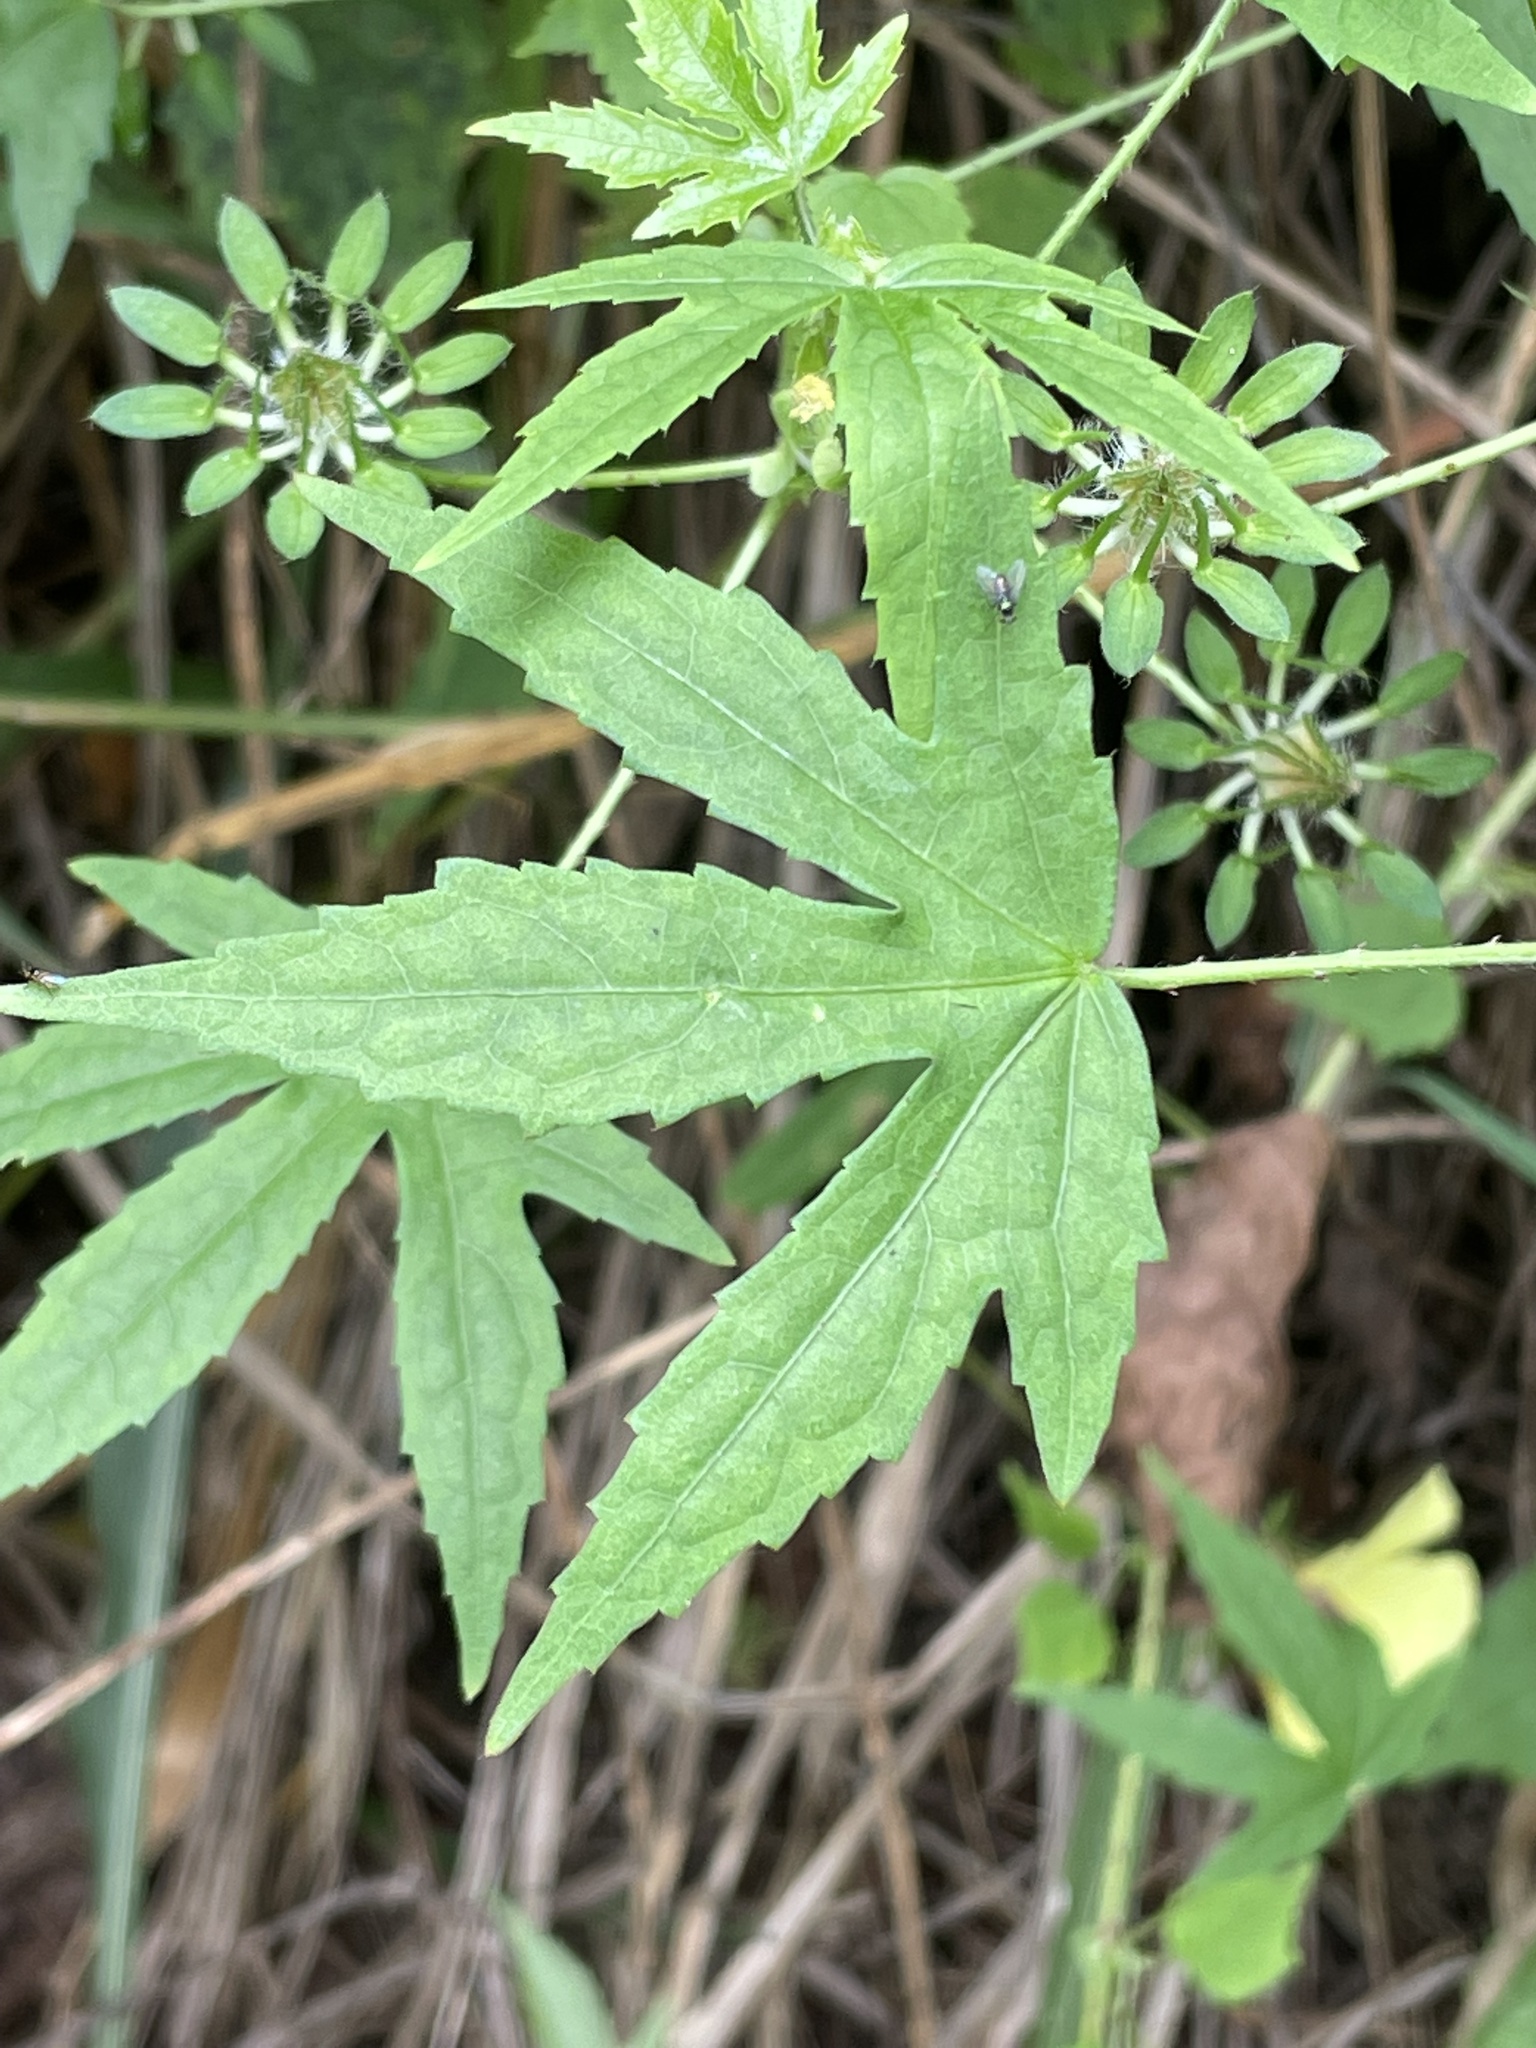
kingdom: Plantae
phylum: Tracheophyta
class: Magnoliopsida
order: Malvales
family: Malvaceae
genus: Hibiscus
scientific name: Hibiscus surattensis
